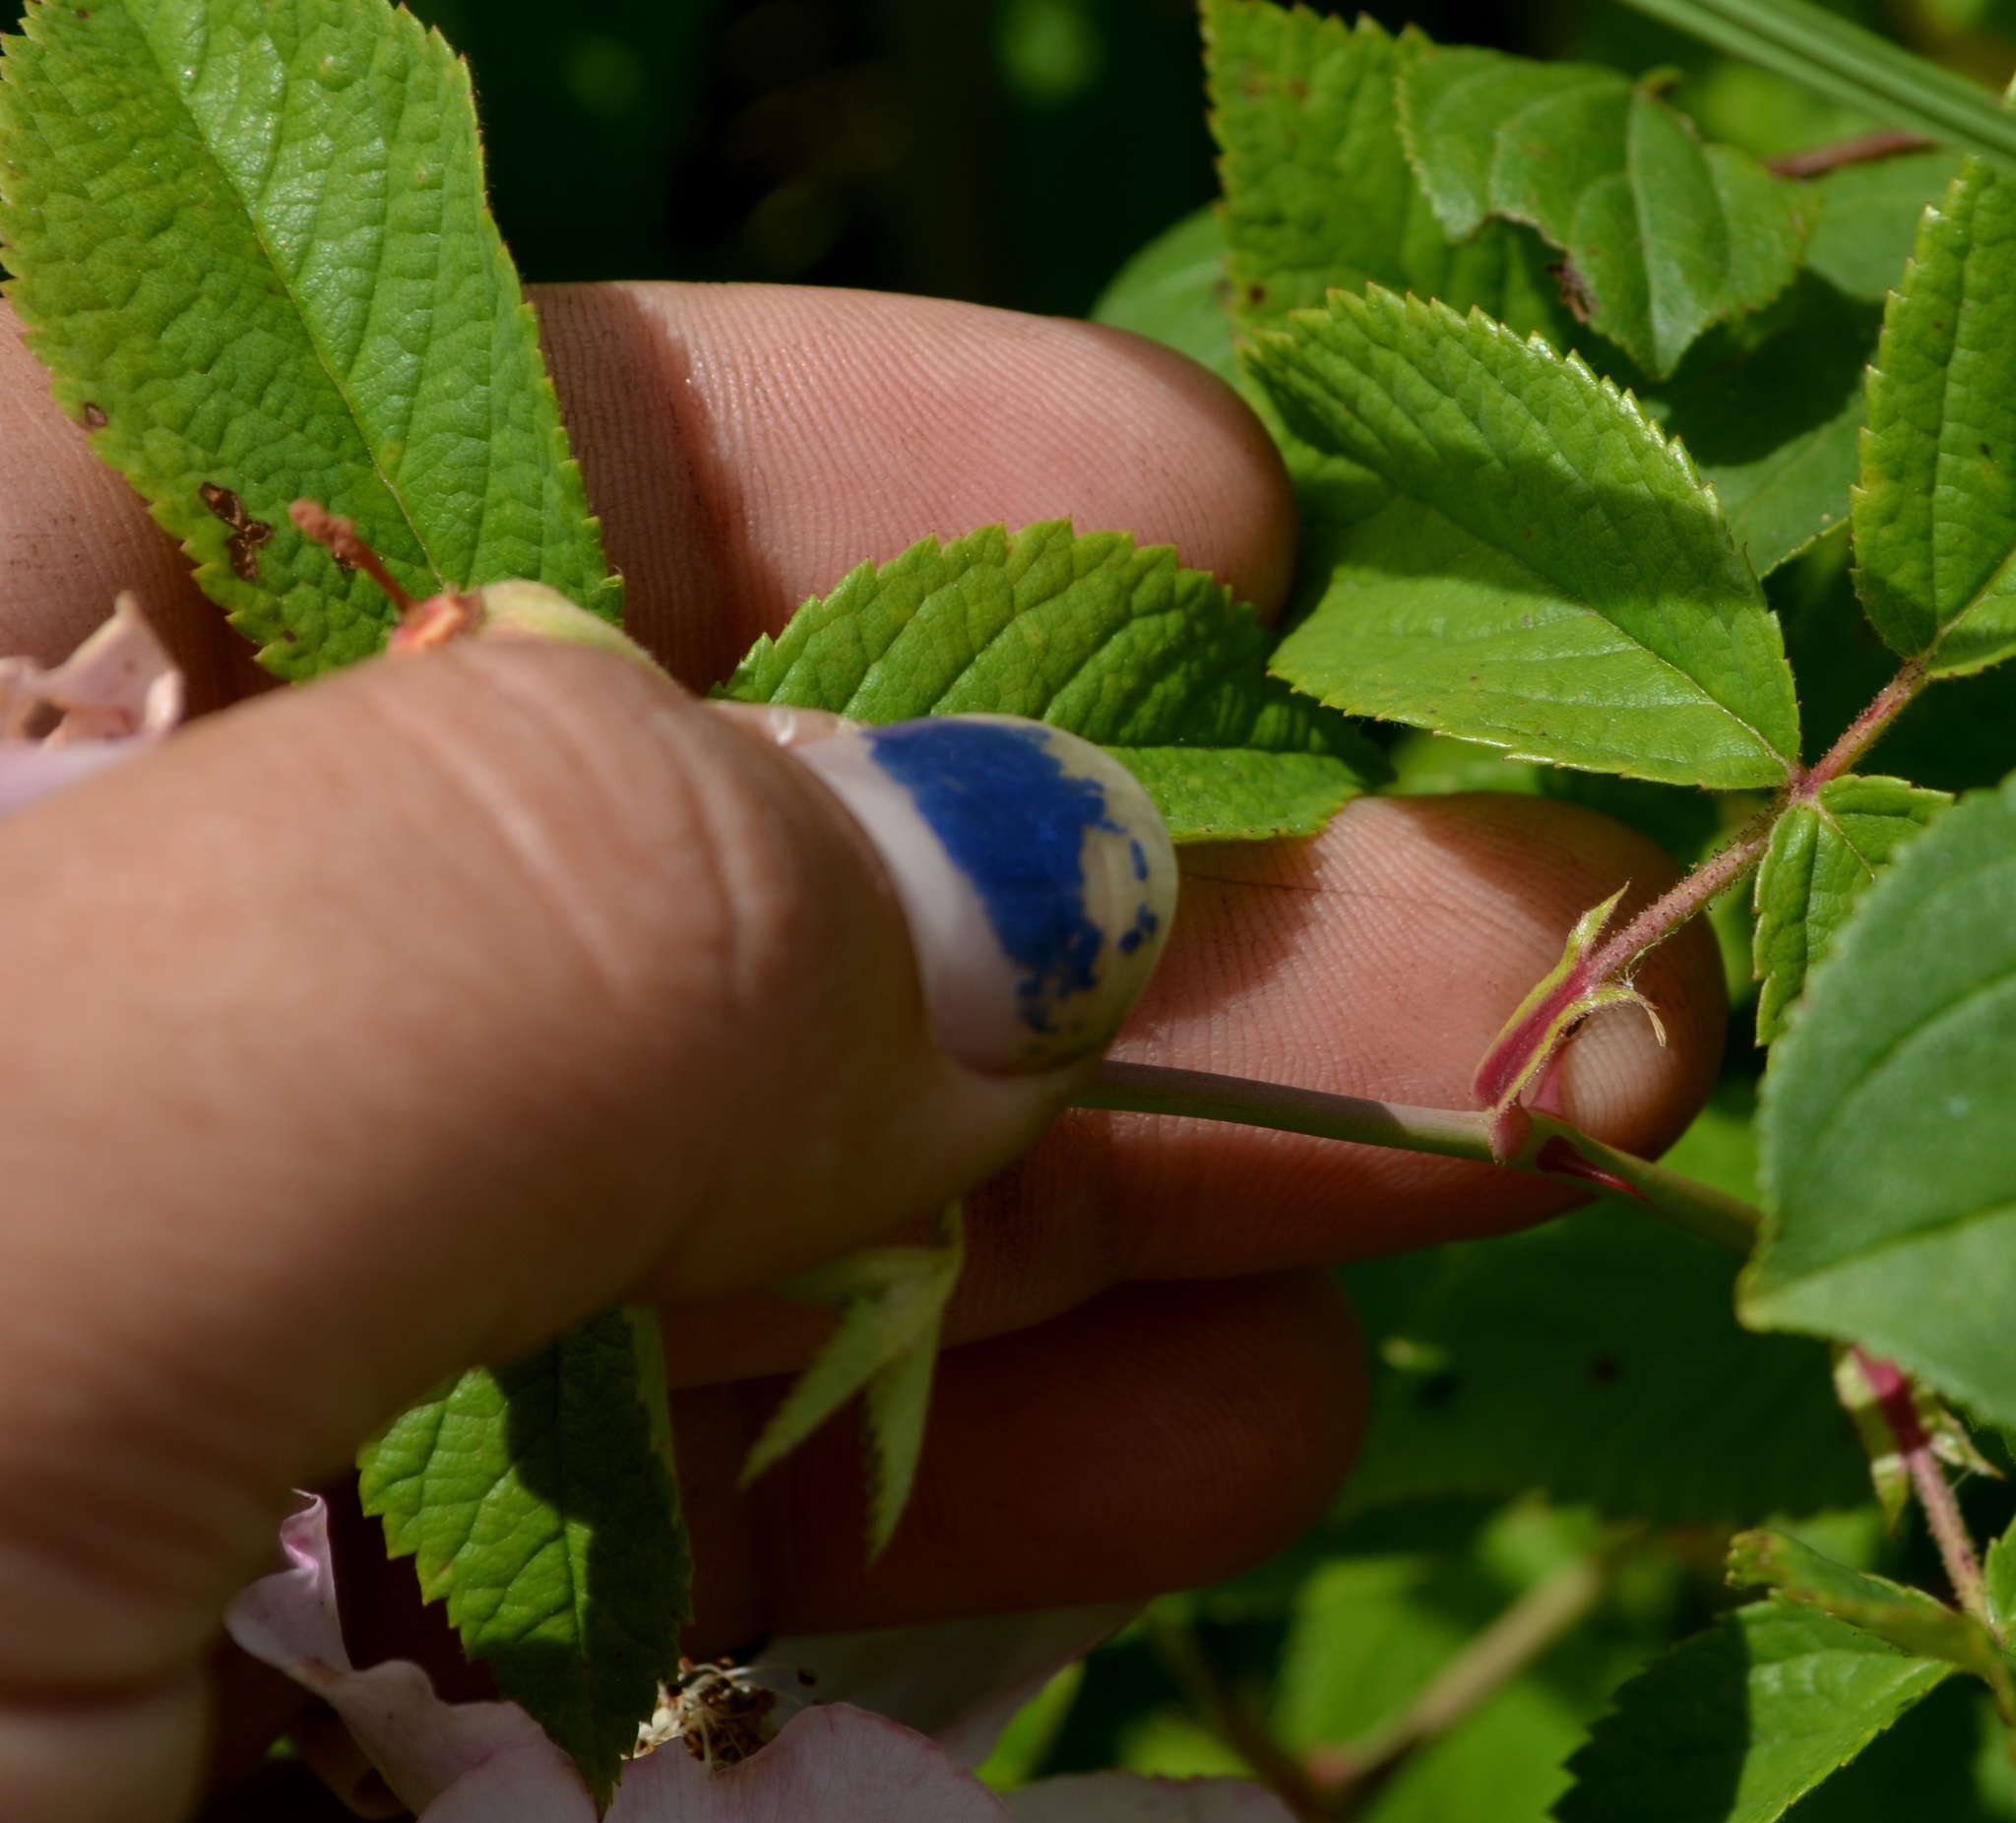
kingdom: Plantae
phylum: Tracheophyta
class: Magnoliopsida
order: Rosales
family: Rosaceae
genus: Rosa
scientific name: Rosa setigera
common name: Prairie rose
